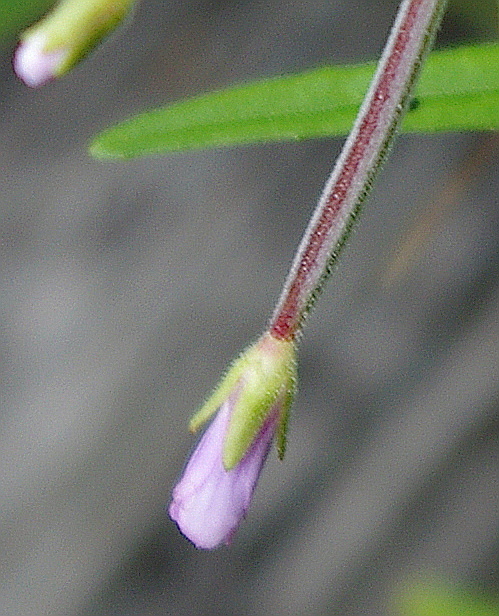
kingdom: Plantae
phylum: Tracheophyta
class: Magnoliopsida
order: Myrtales
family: Onagraceae
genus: Epilobium
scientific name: Epilobium palustre
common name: Marsh willowherb
